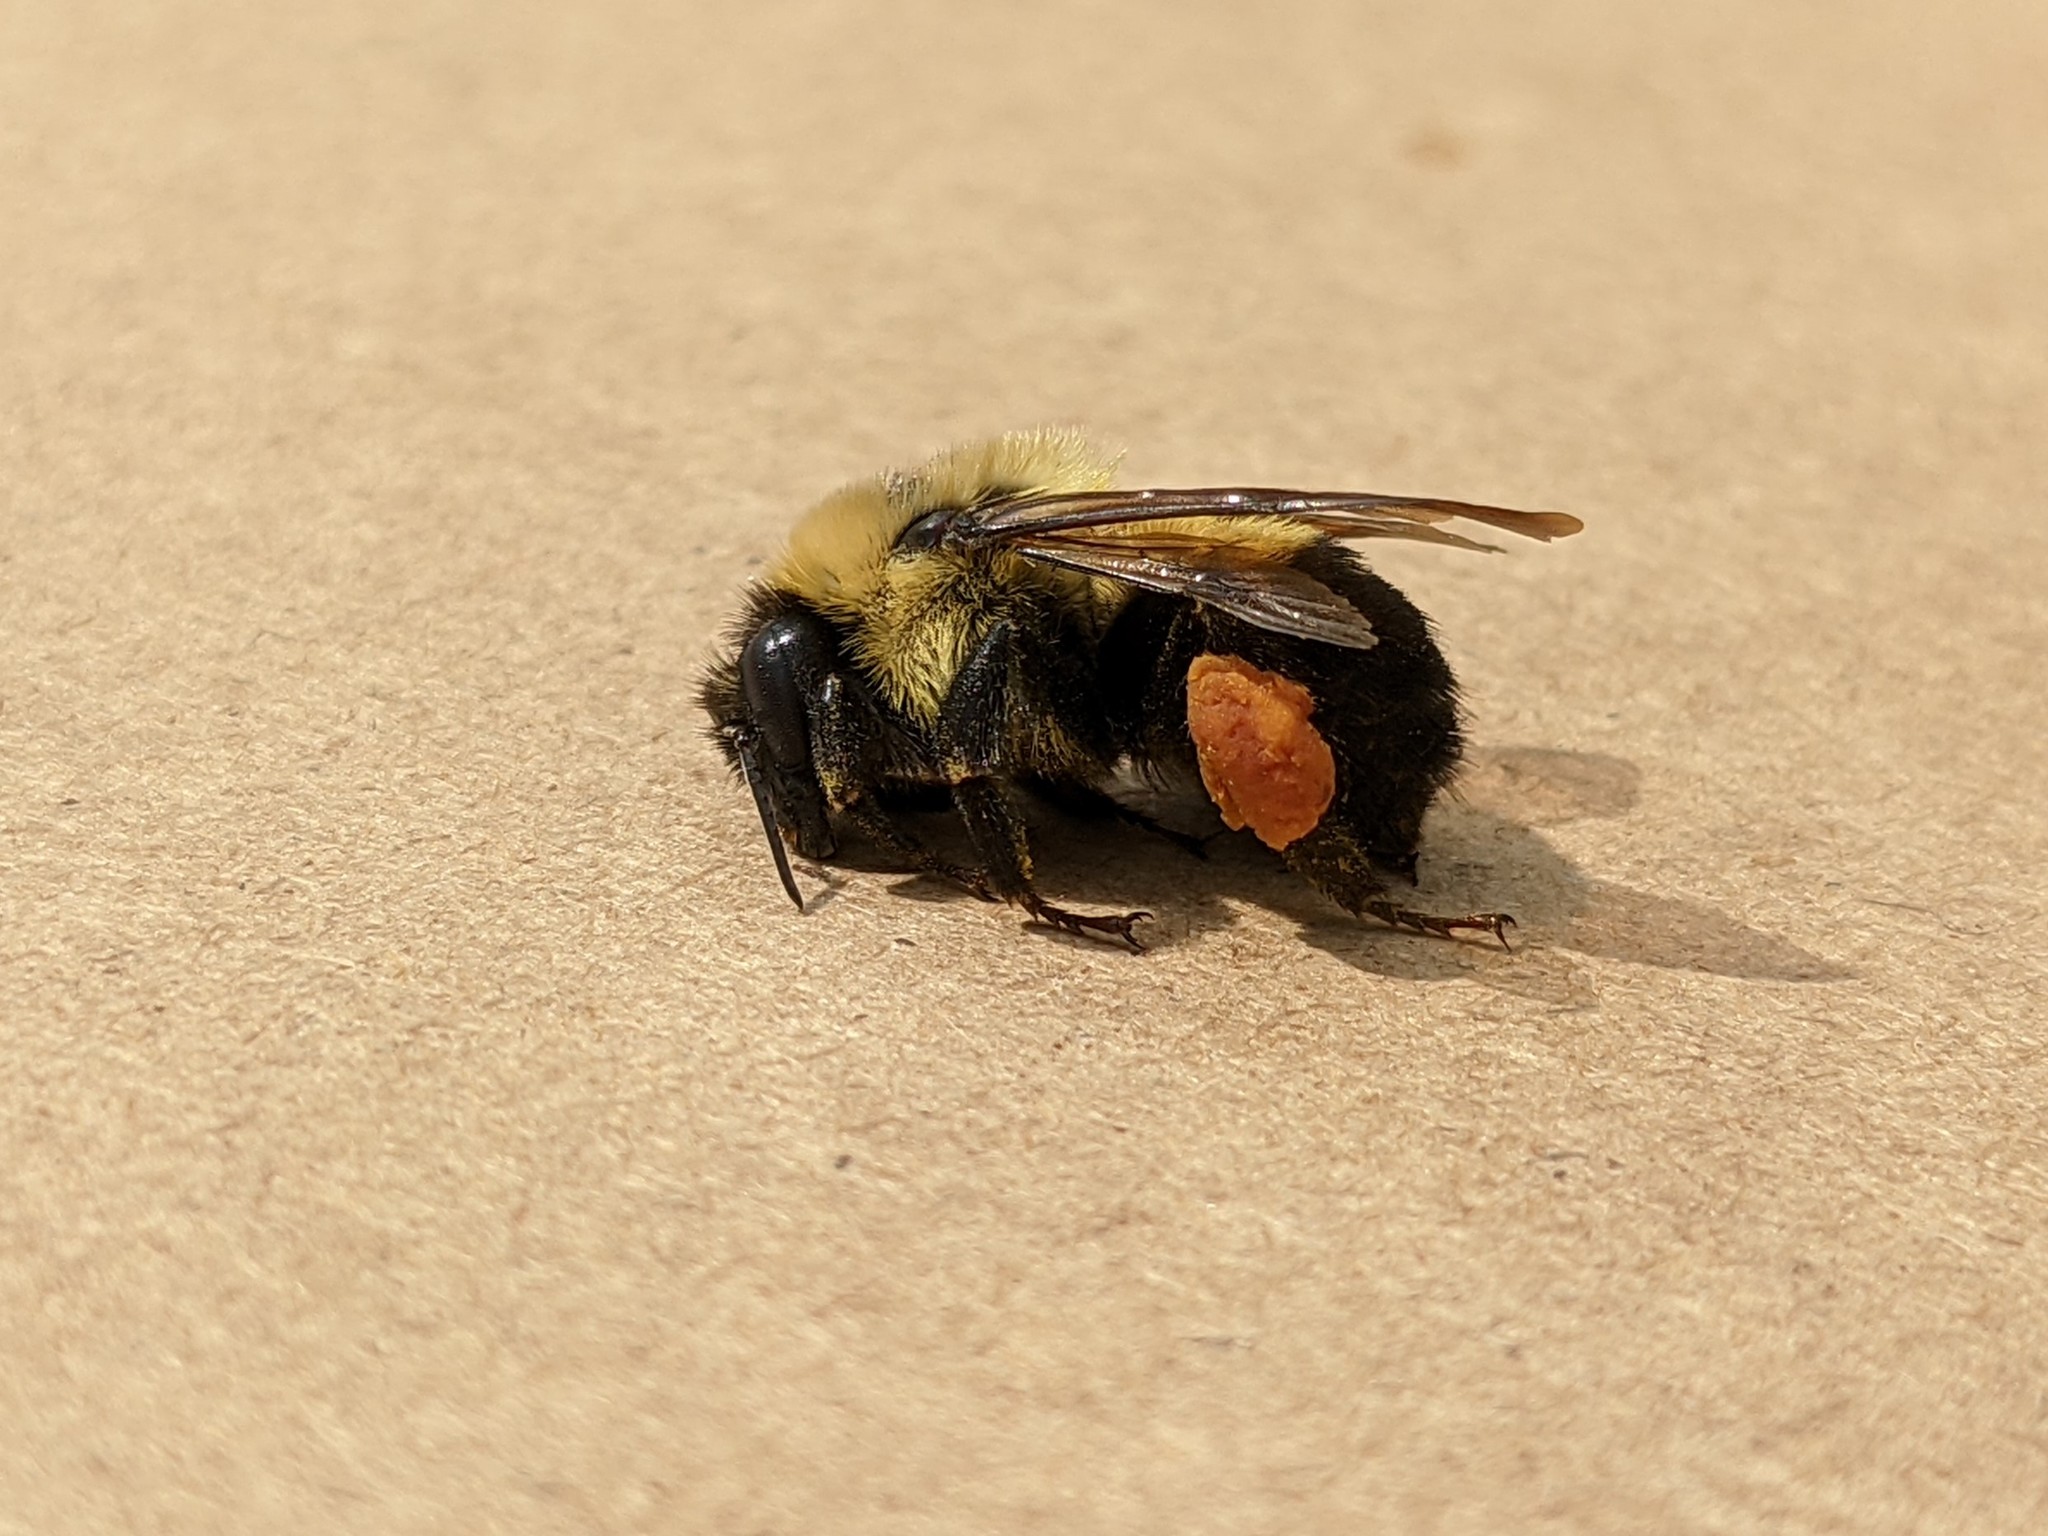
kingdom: Animalia
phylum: Arthropoda
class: Insecta
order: Hymenoptera
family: Apidae
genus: Bombus
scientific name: Bombus griseocollis
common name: Brown-belted bumble bee
